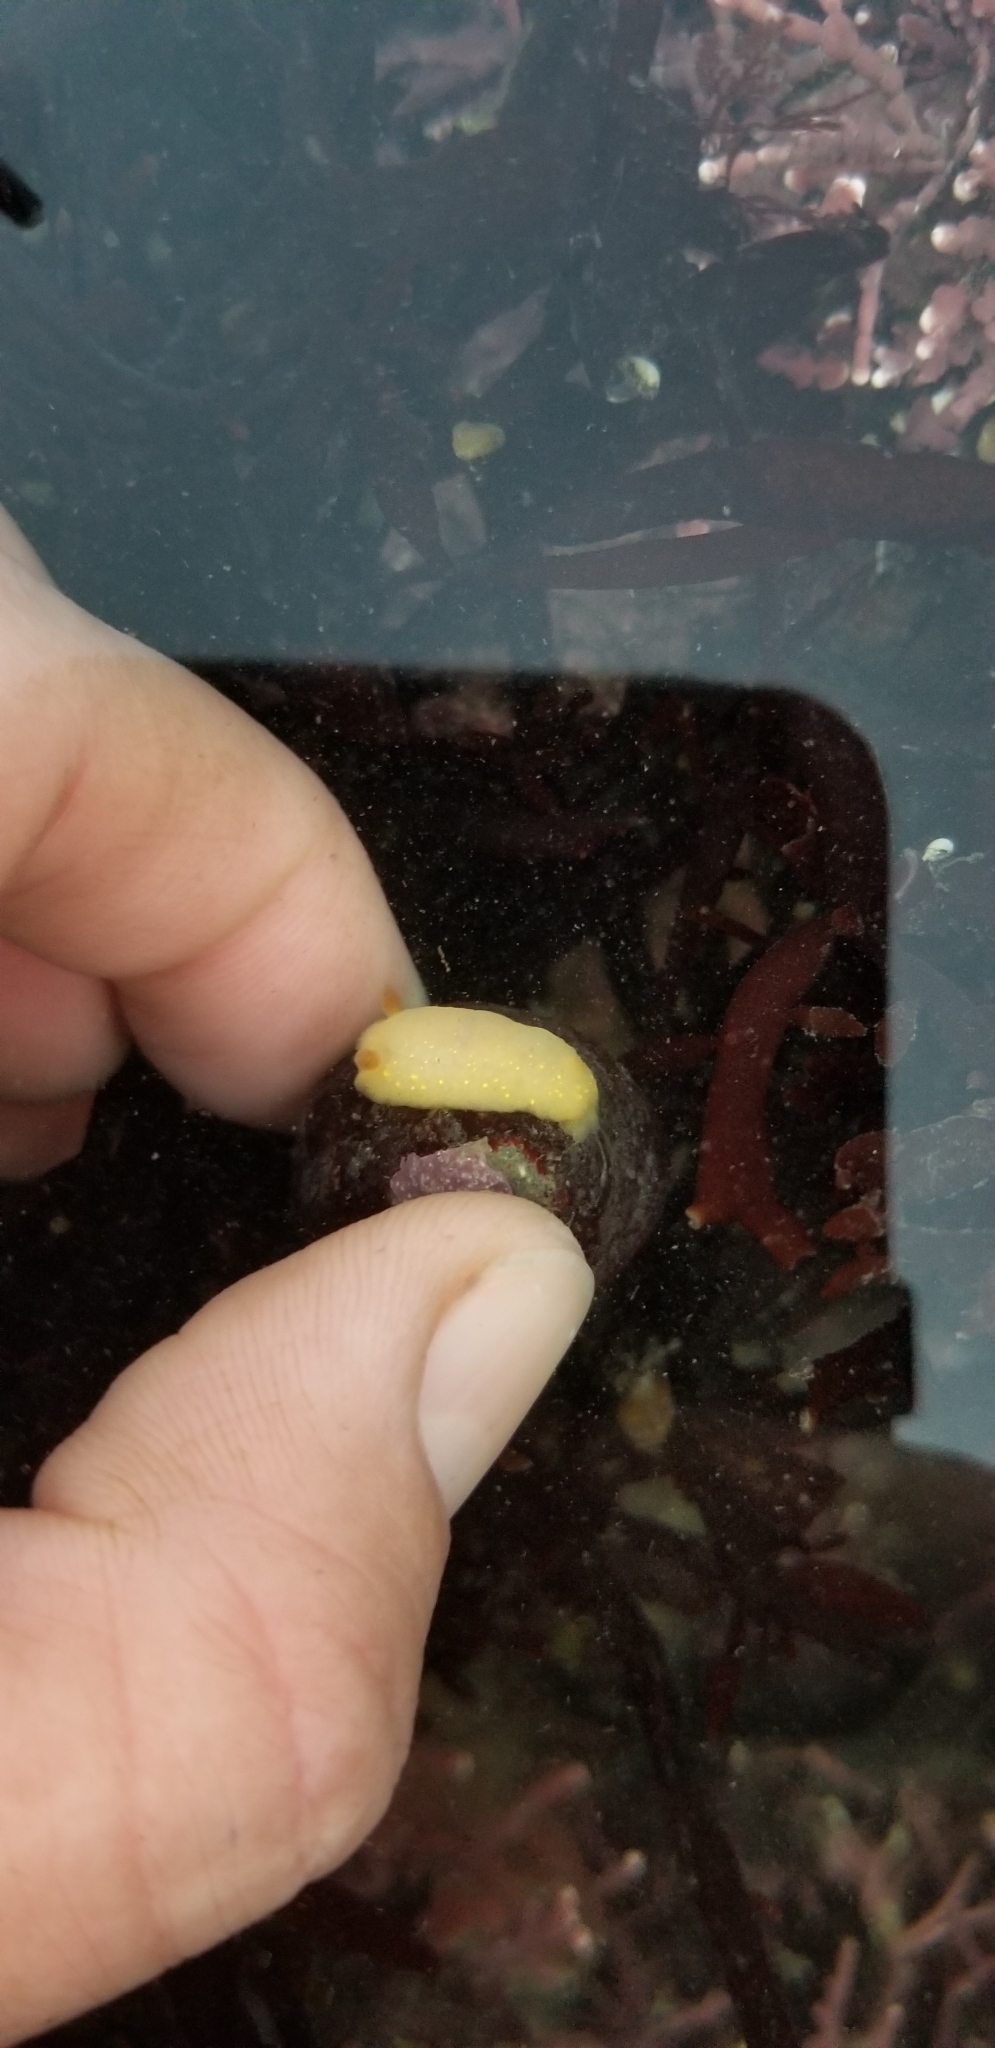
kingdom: Animalia
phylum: Mollusca
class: Gastropoda
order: Nudibranchia
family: Cadlinidae
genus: Cadlina
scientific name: Cadlina modesta
